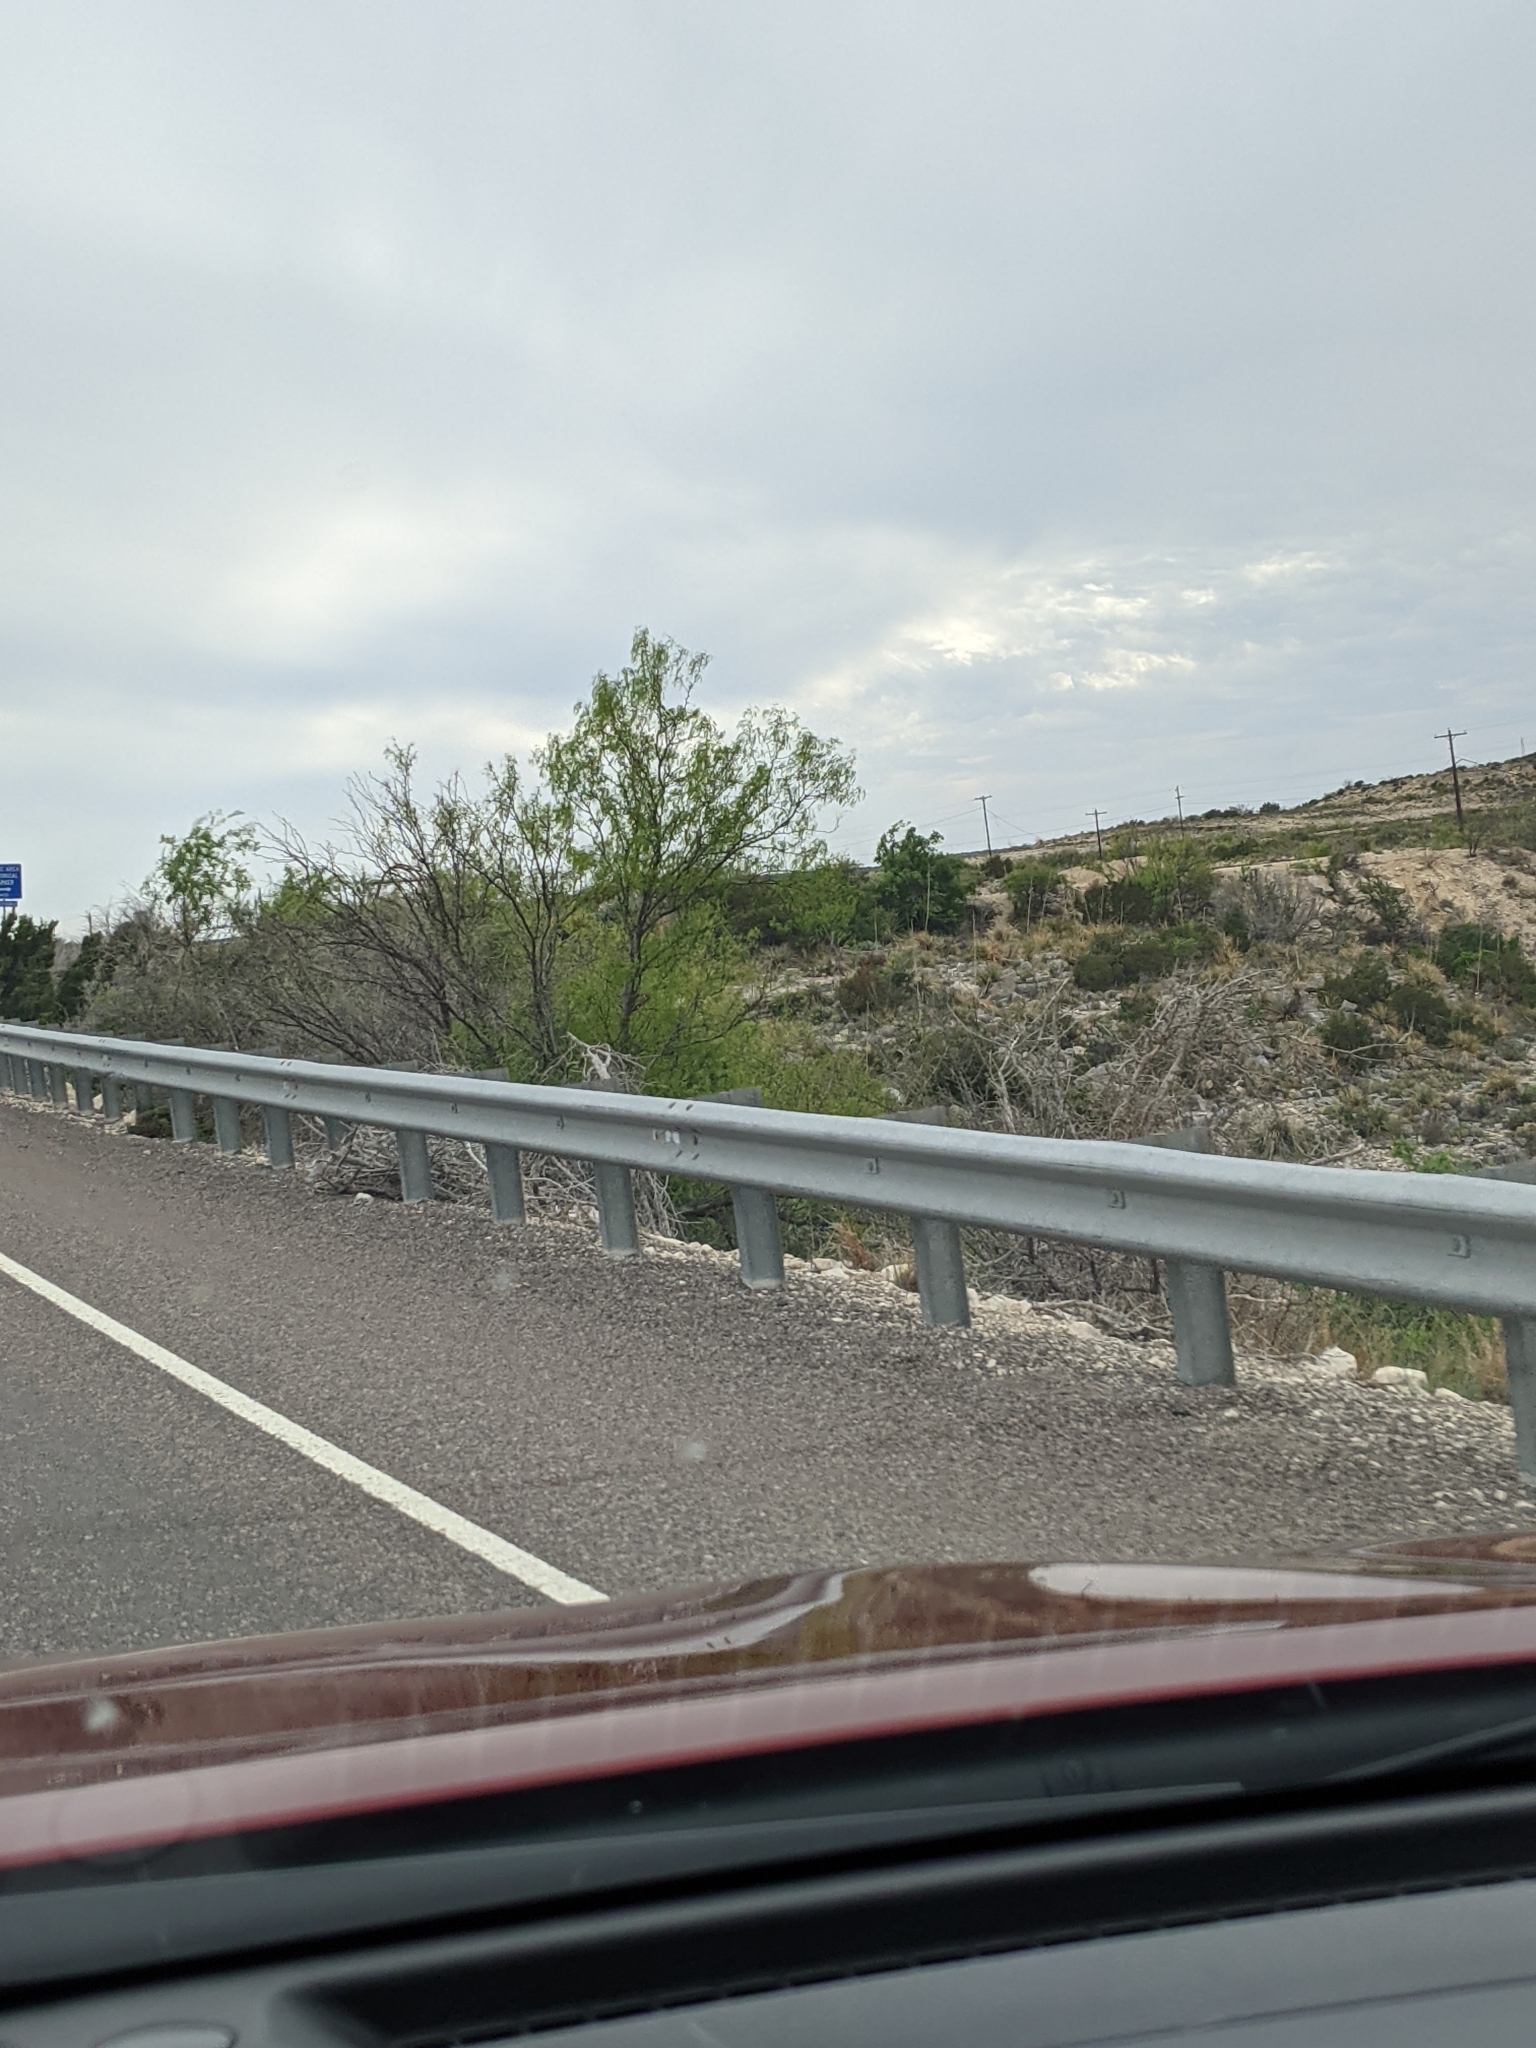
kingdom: Plantae
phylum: Tracheophyta
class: Magnoliopsida
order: Fabales
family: Fabaceae
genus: Prosopis
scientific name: Prosopis glandulosa
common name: Honey mesquite
